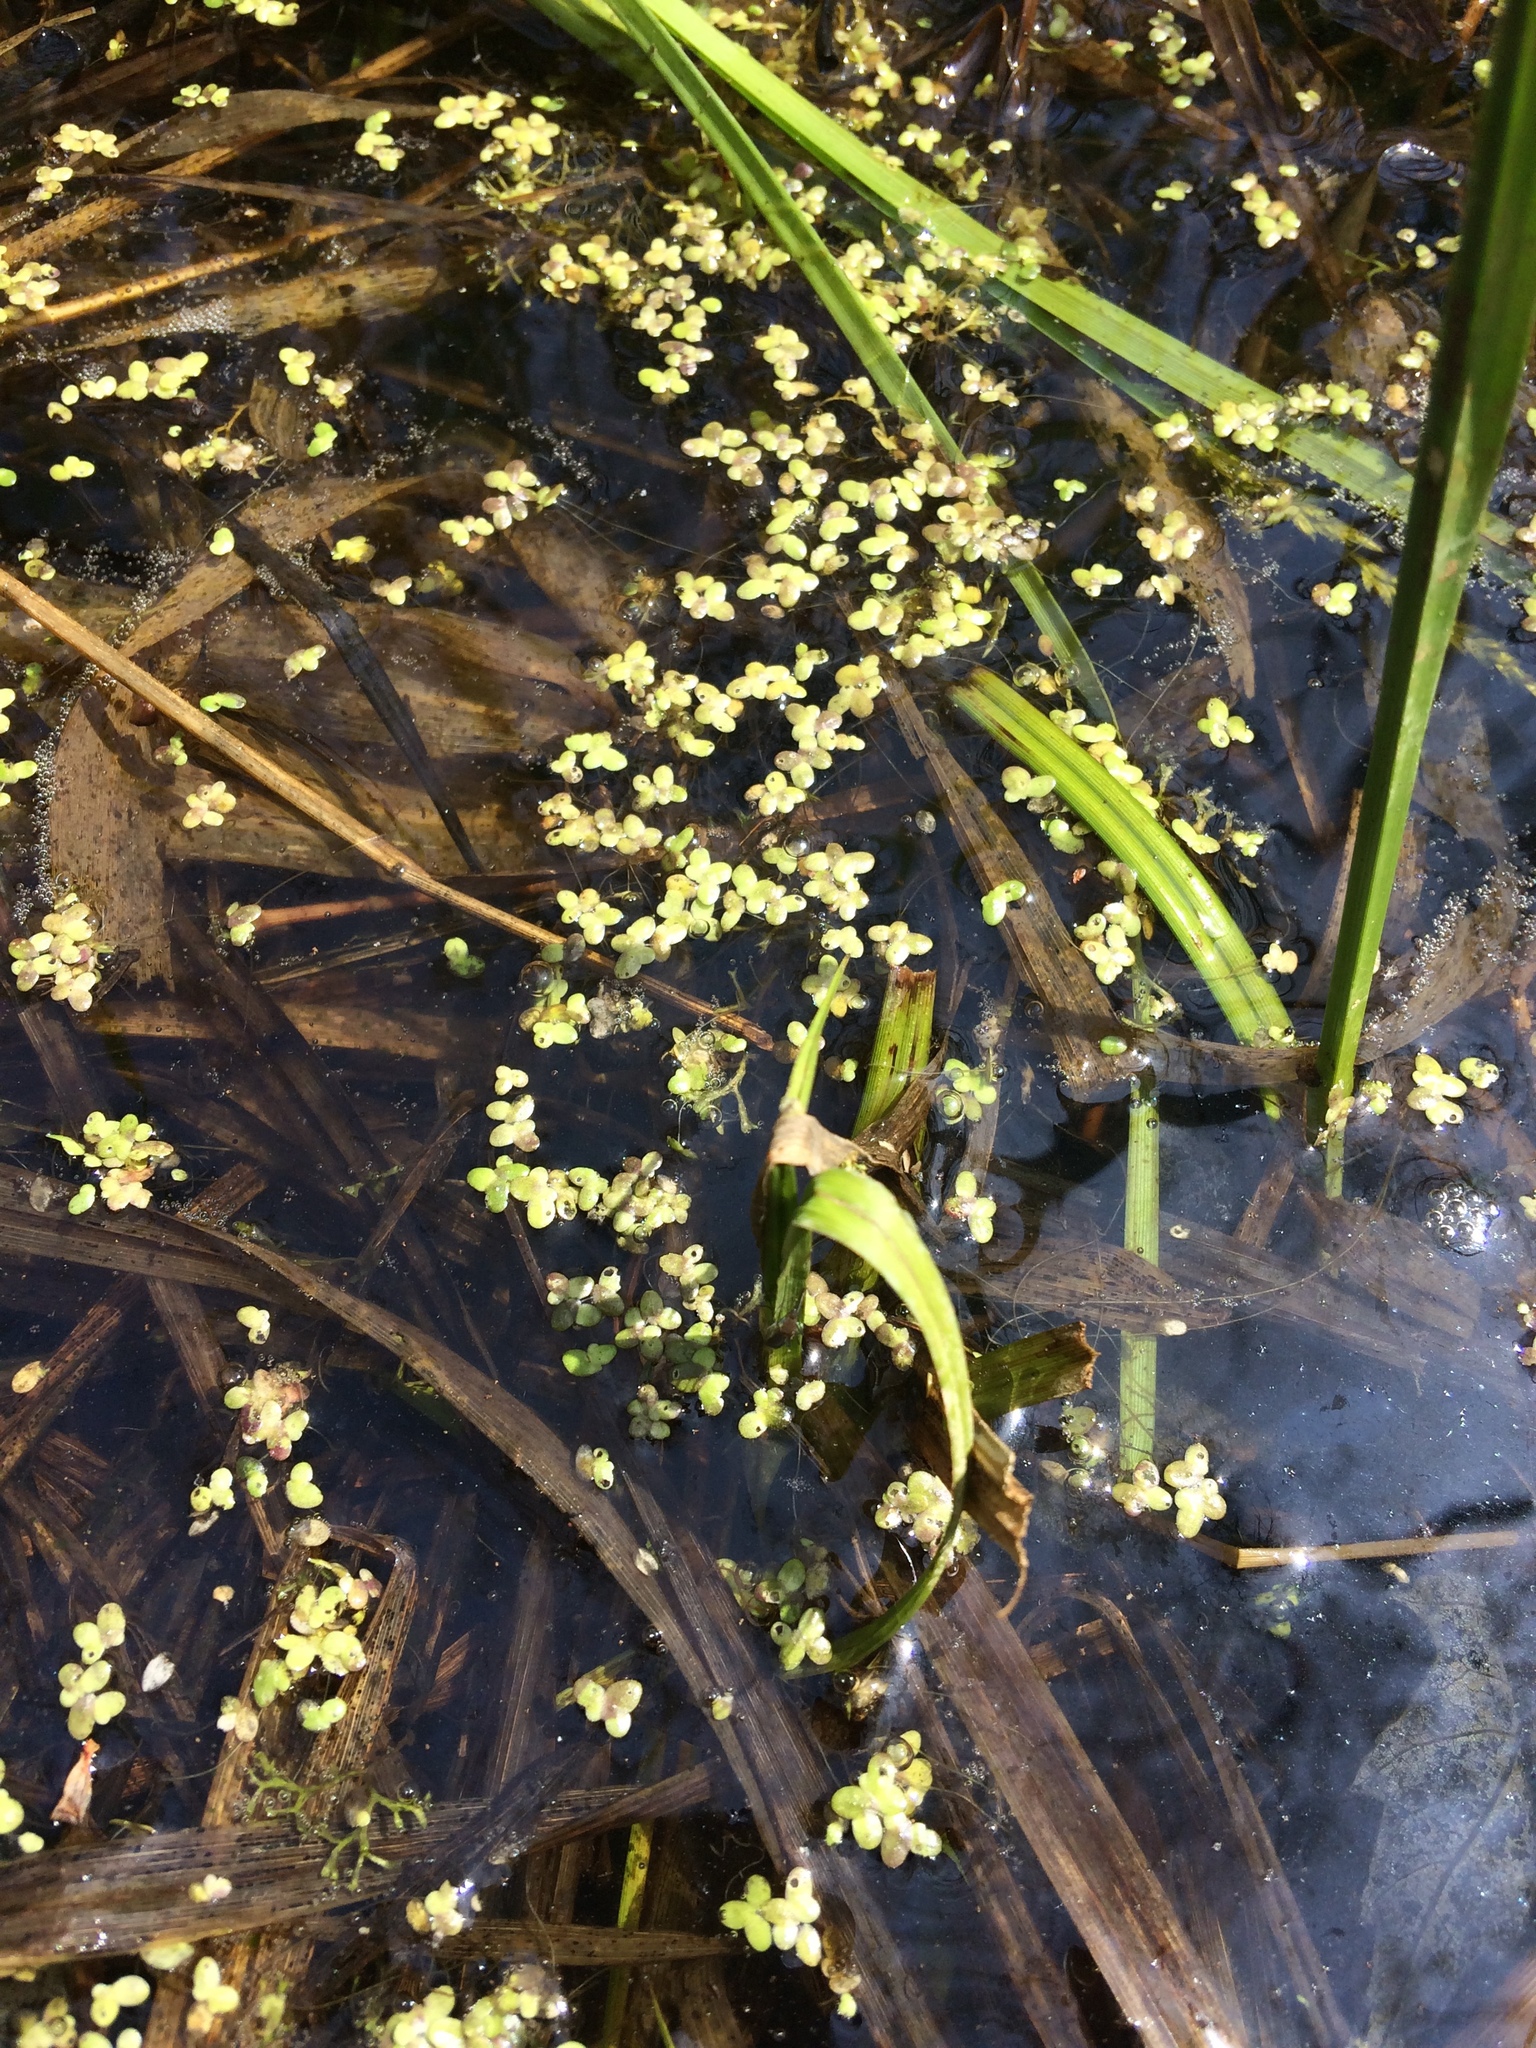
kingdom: Plantae
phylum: Tracheophyta
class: Liliopsida
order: Alismatales
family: Araceae
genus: Lemna
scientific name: Lemna minor
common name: Common duckweed
